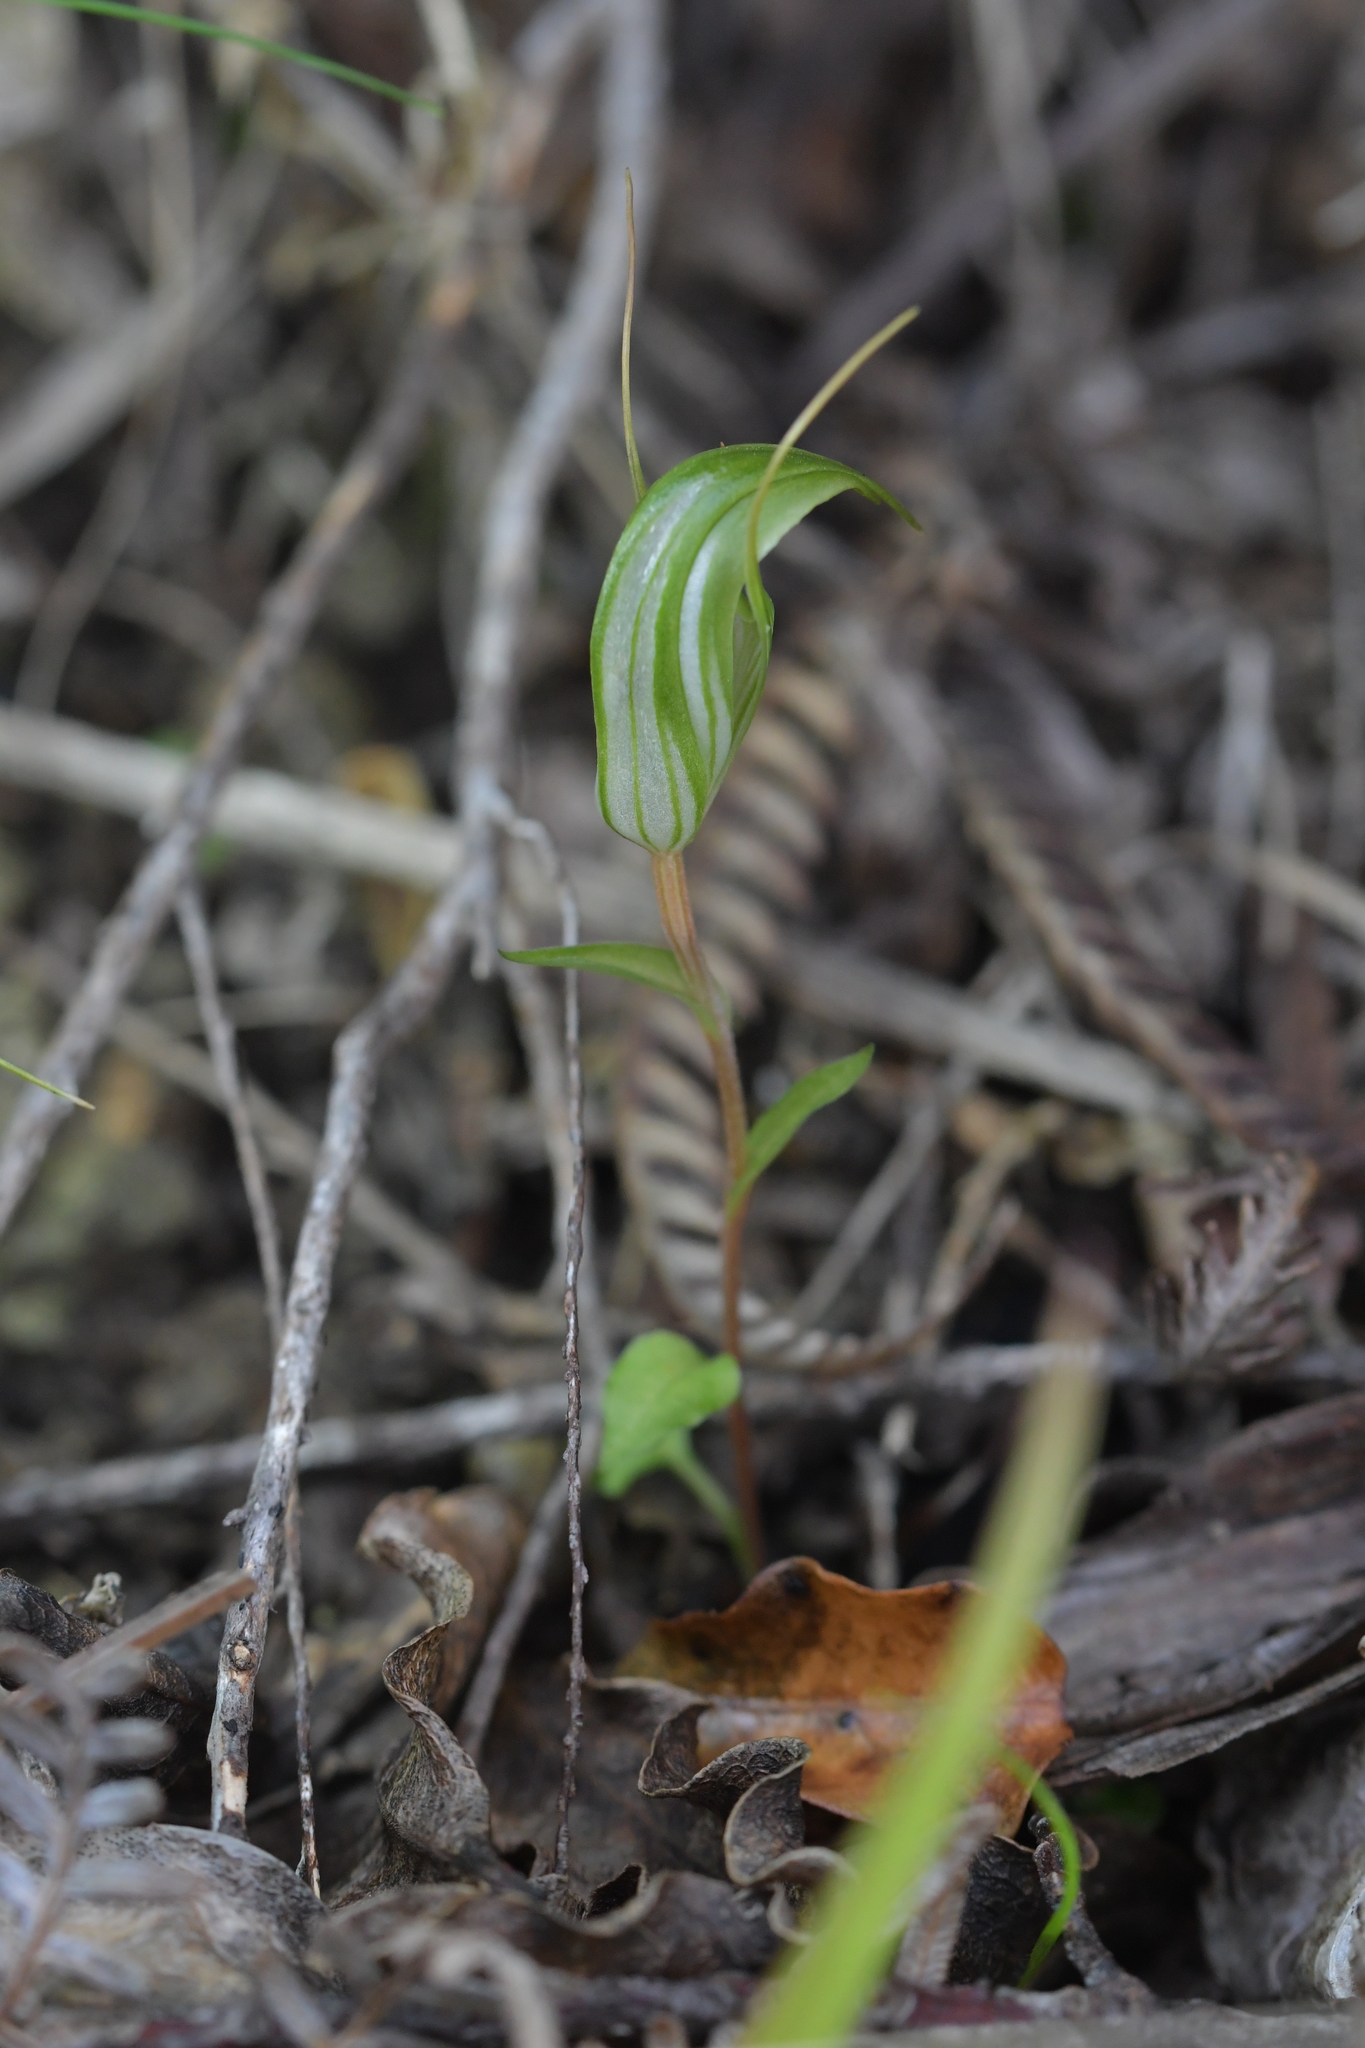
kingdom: Plantae
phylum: Tracheophyta
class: Liliopsida
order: Asparagales
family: Orchidaceae
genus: Pterostylis
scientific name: Pterostylis alobula
